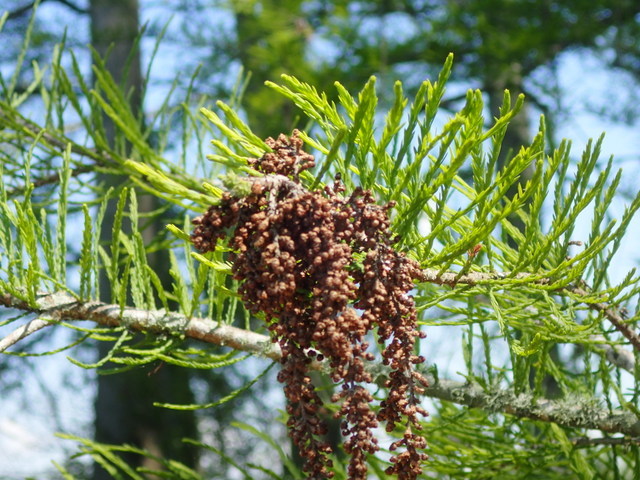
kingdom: Plantae
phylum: Tracheophyta
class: Pinopsida
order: Pinales
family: Cupressaceae
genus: Taxodium
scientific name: Taxodium distichum
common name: Bald cypress
